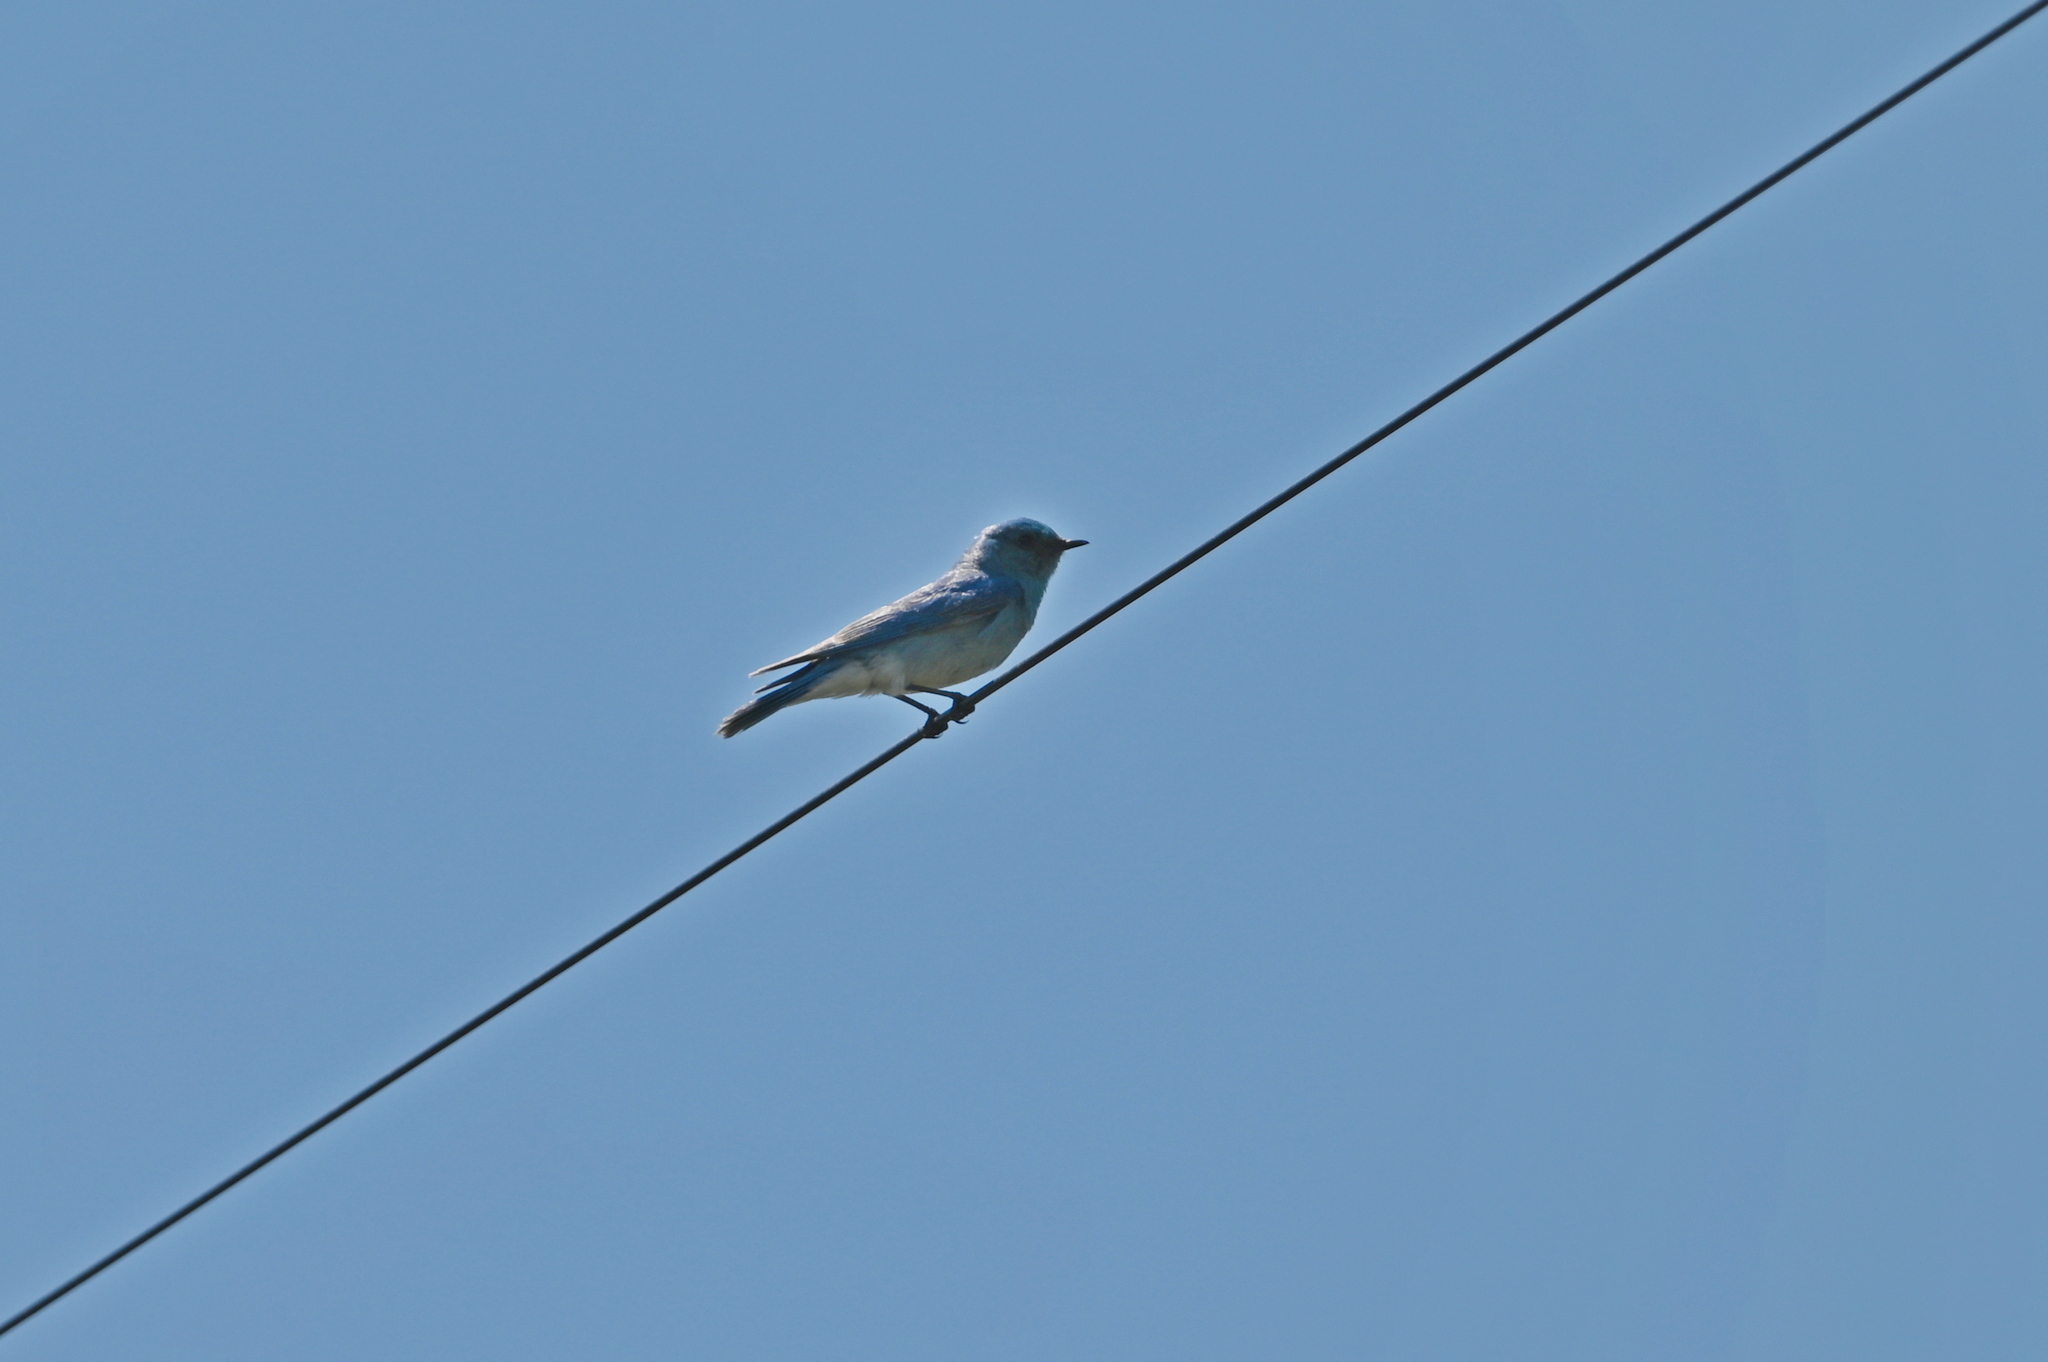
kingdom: Animalia
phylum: Chordata
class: Aves
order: Passeriformes
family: Turdidae
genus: Sialia
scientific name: Sialia currucoides
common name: Mountain bluebird
